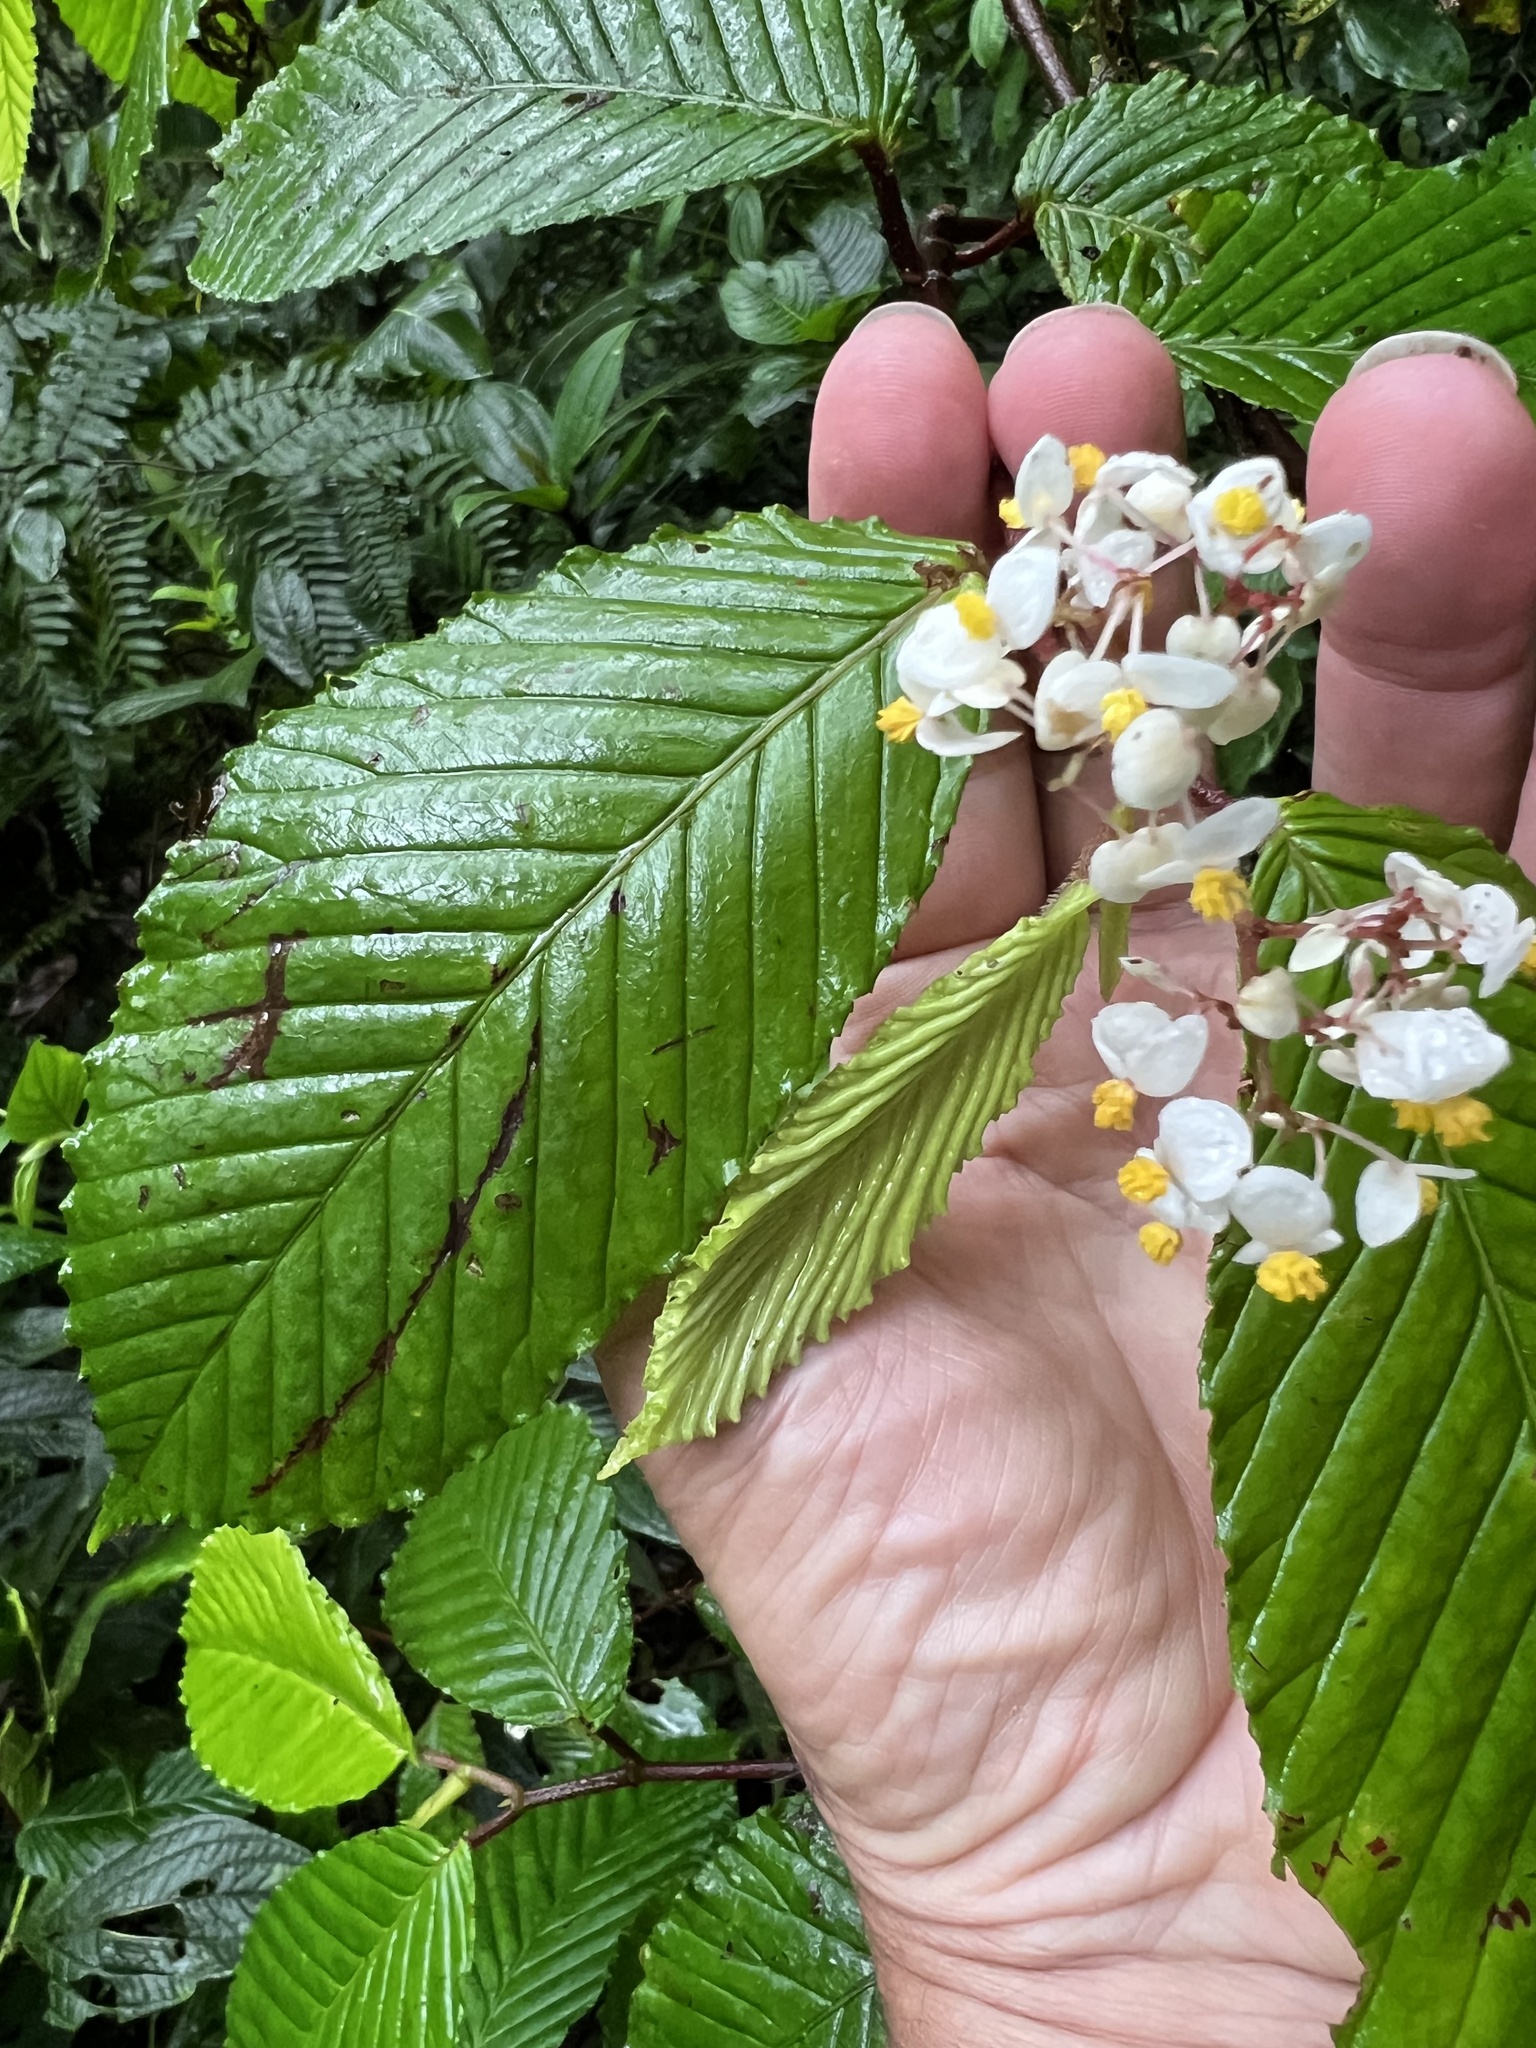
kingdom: Plantae
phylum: Tracheophyta
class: Magnoliopsida
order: Cucurbitales
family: Begoniaceae
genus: Begonia
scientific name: Begonia cooperi
